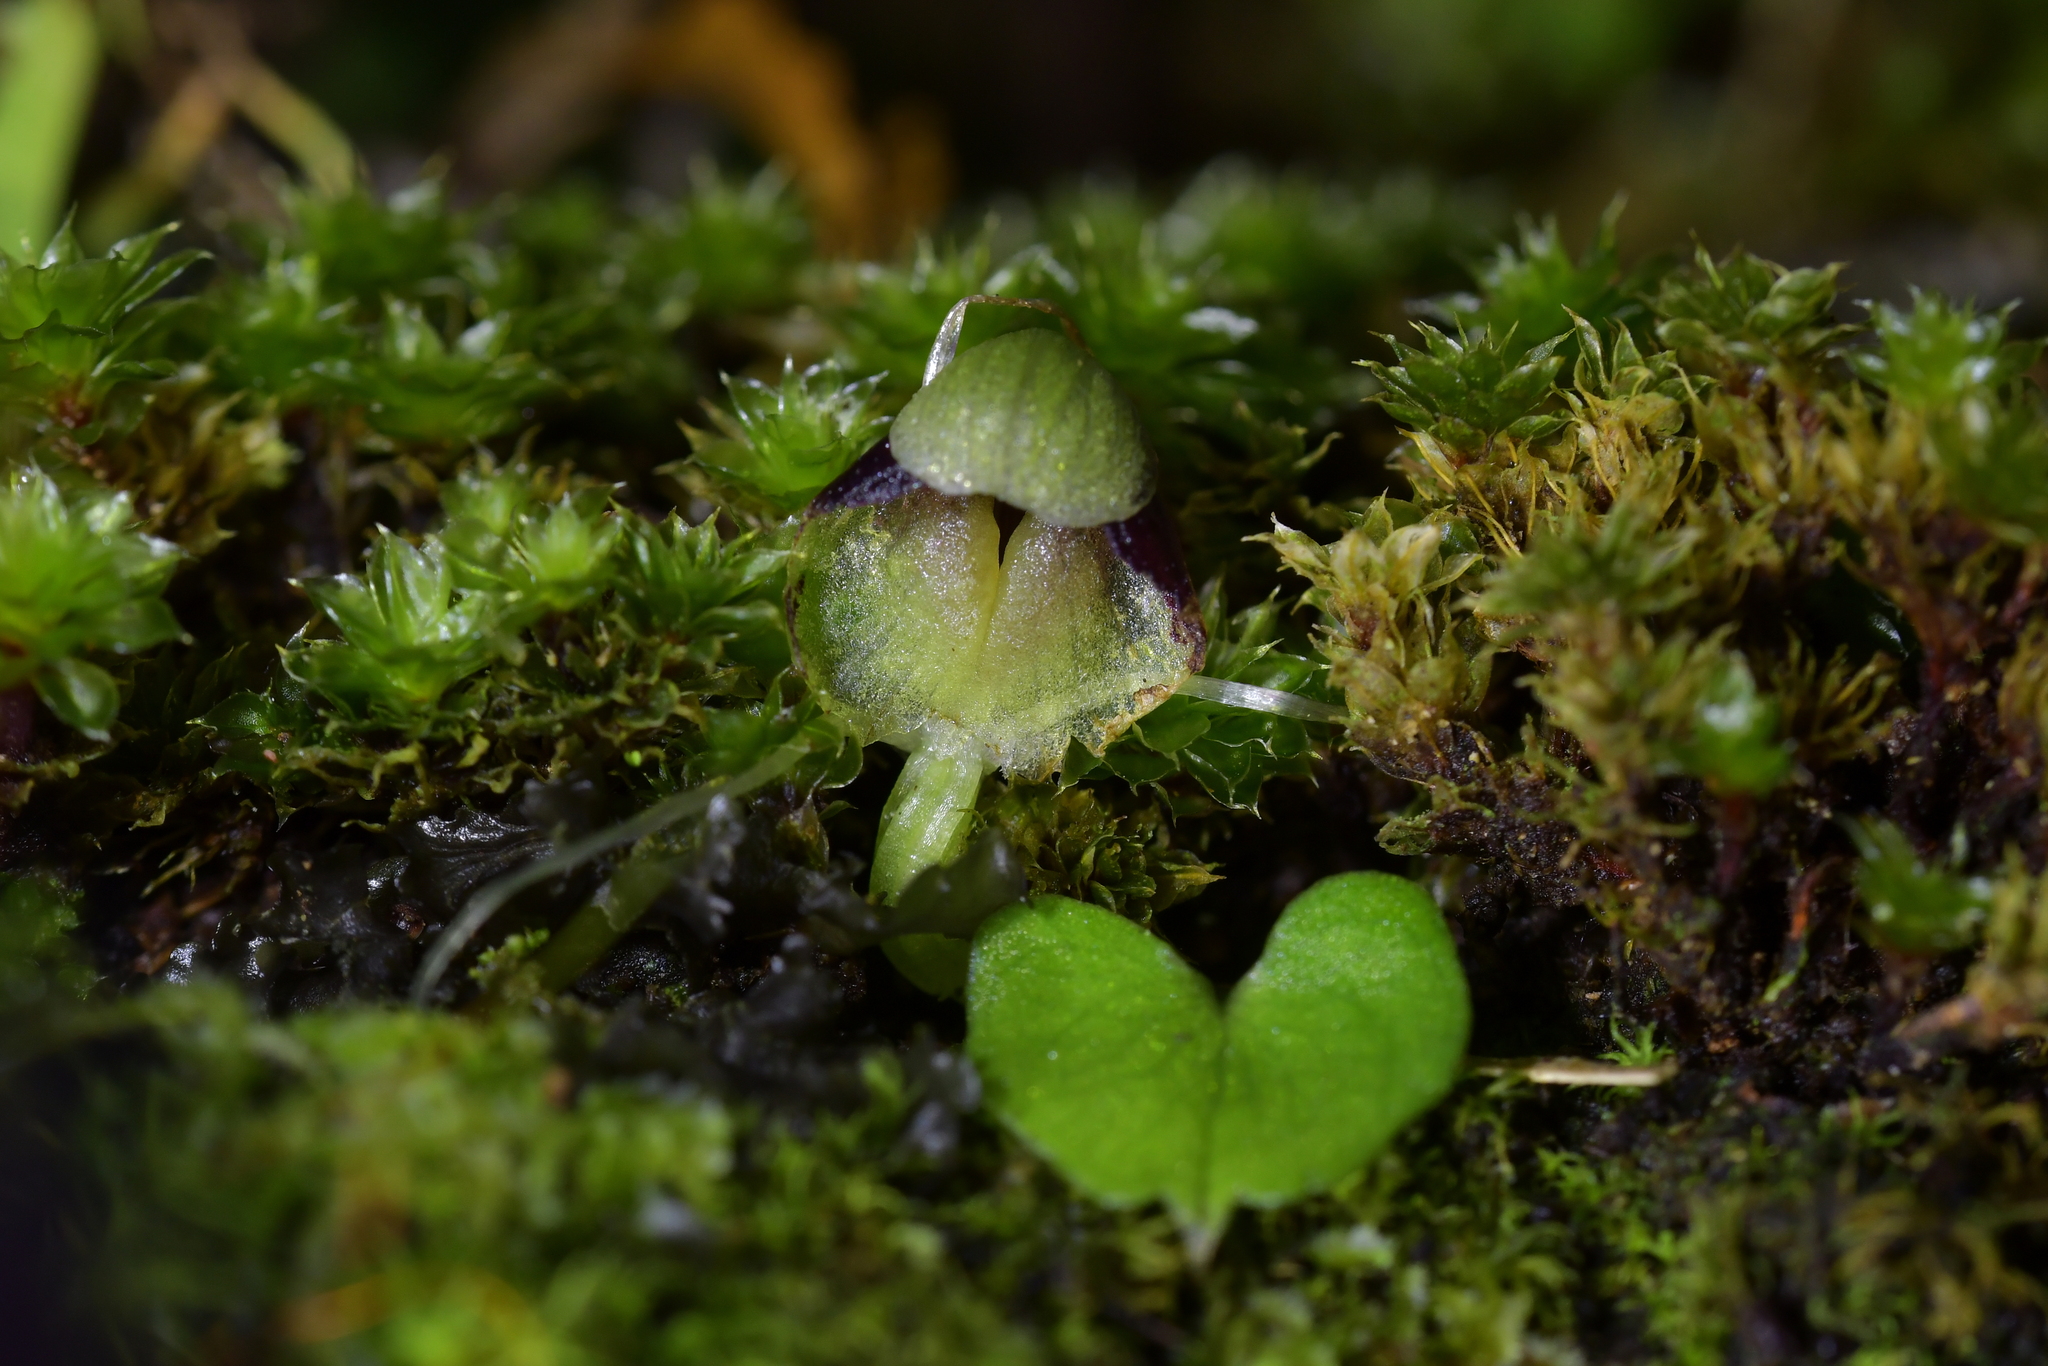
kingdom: Plantae
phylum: Tracheophyta
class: Liliopsida
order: Asparagales
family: Orchidaceae
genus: Corybas
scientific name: Corybas vitreus
